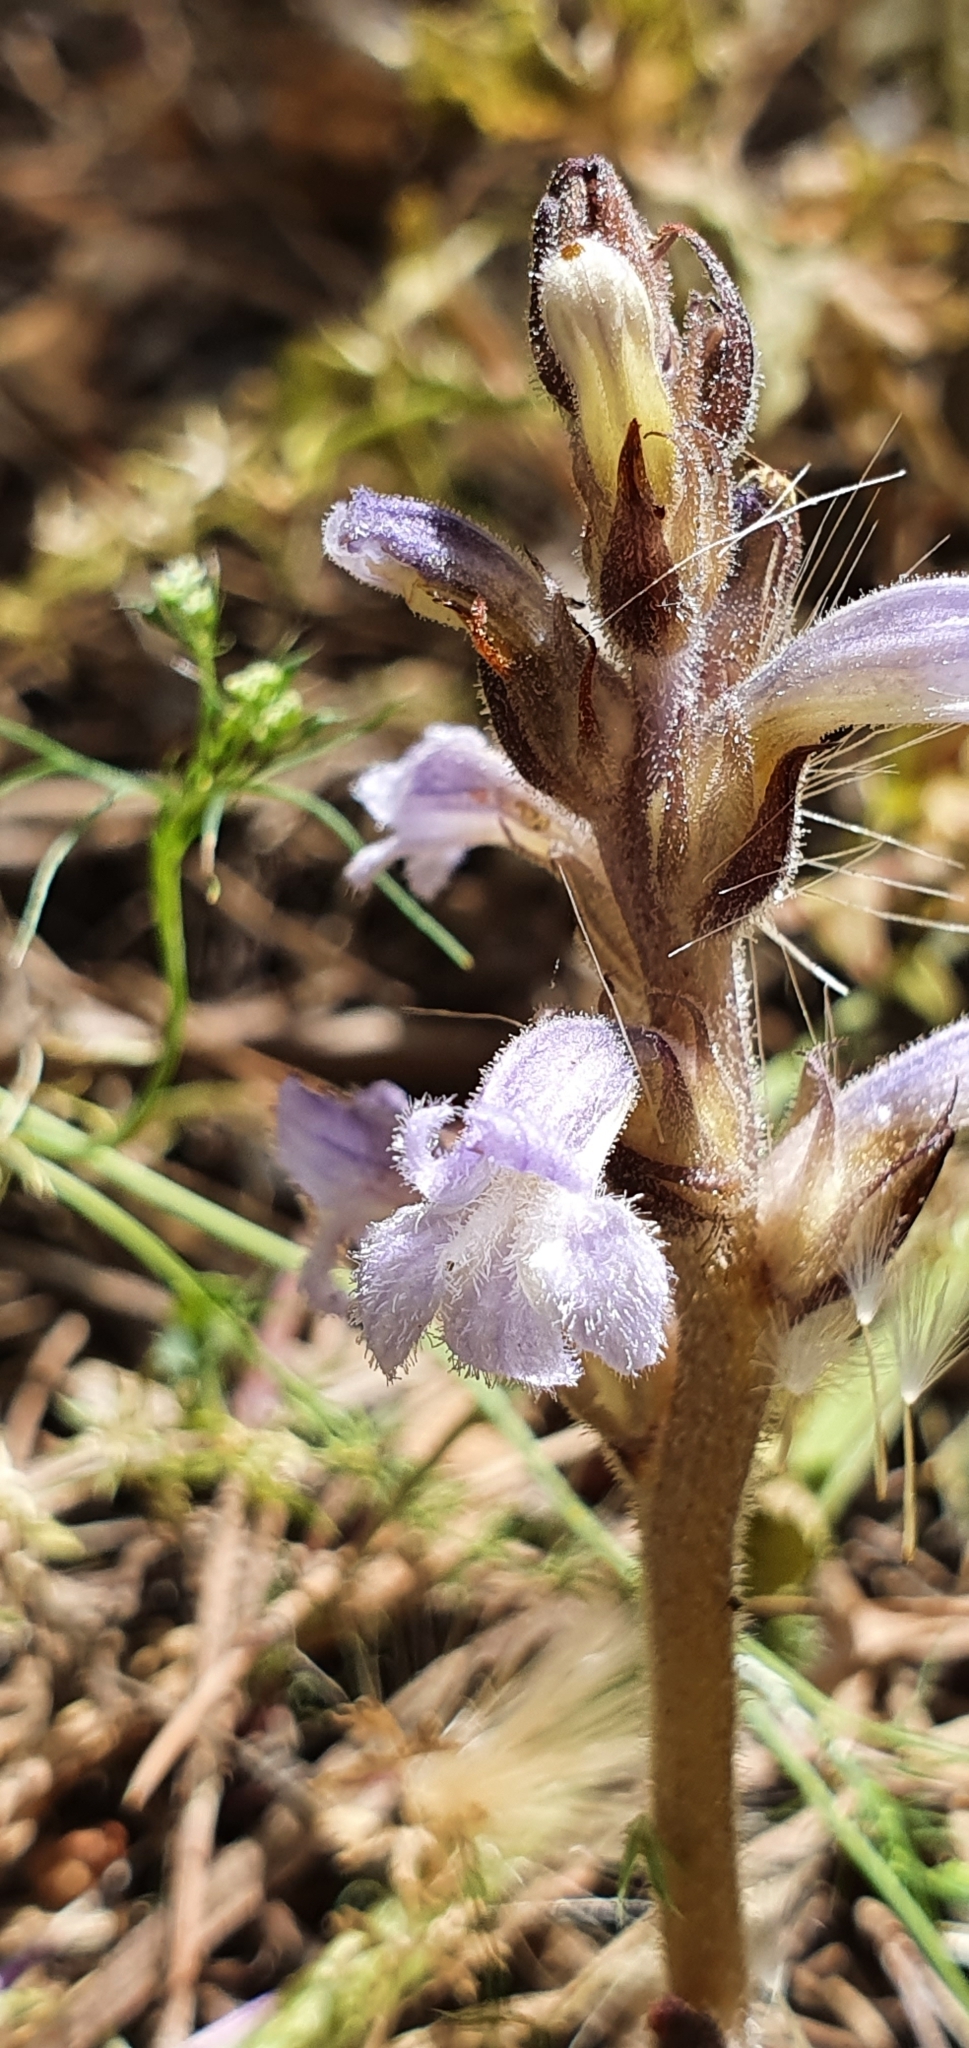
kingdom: Plantae
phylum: Tracheophyta
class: Magnoliopsida
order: Lamiales
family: Orobanchaceae
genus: Phelipanche
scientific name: Phelipanche mutelii
